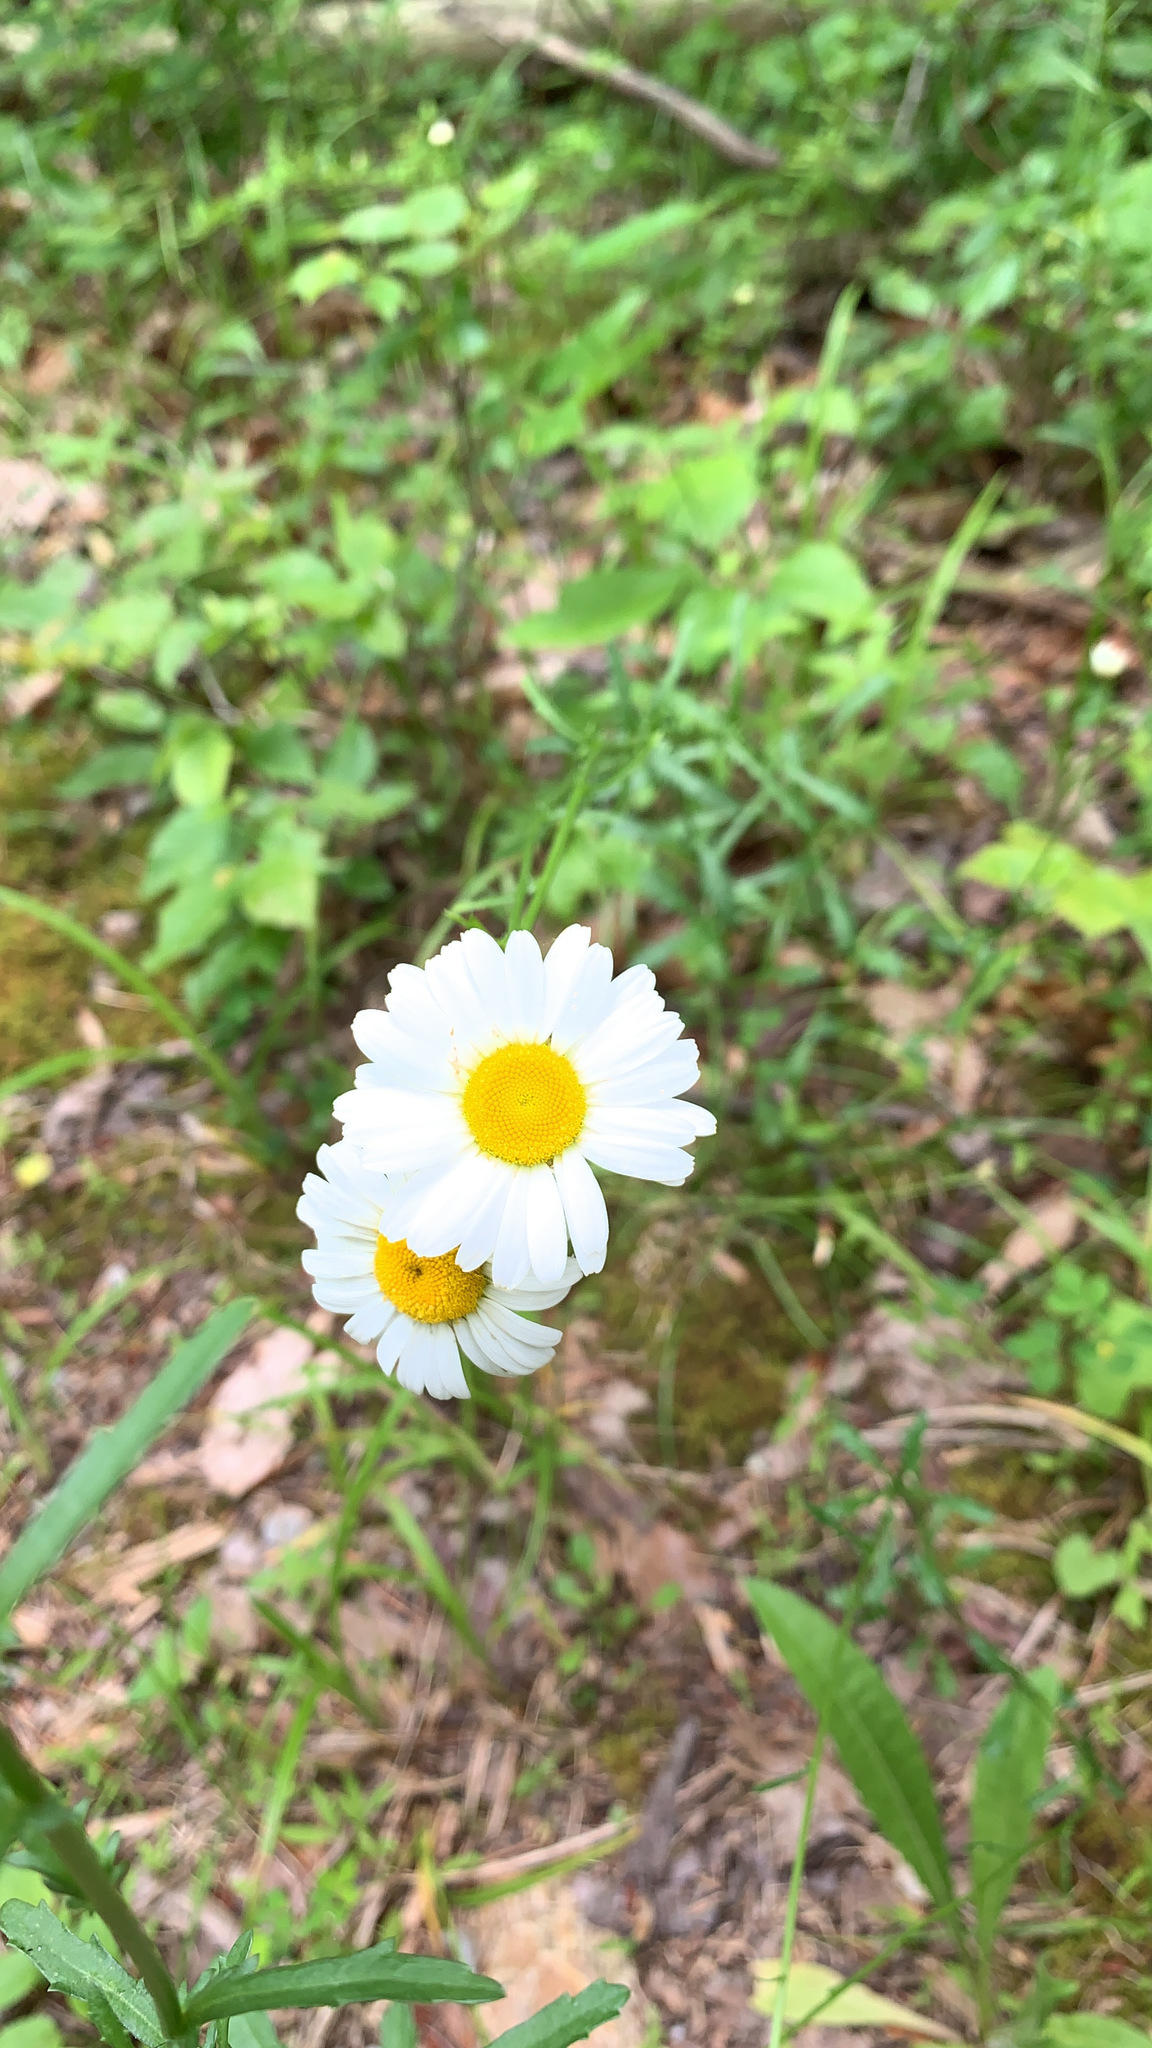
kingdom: Plantae
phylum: Tracheophyta
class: Magnoliopsida
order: Asterales
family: Asteraceae
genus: Leucanthemum
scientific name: Leucanthemum vulgare
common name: Oxeye daisy
